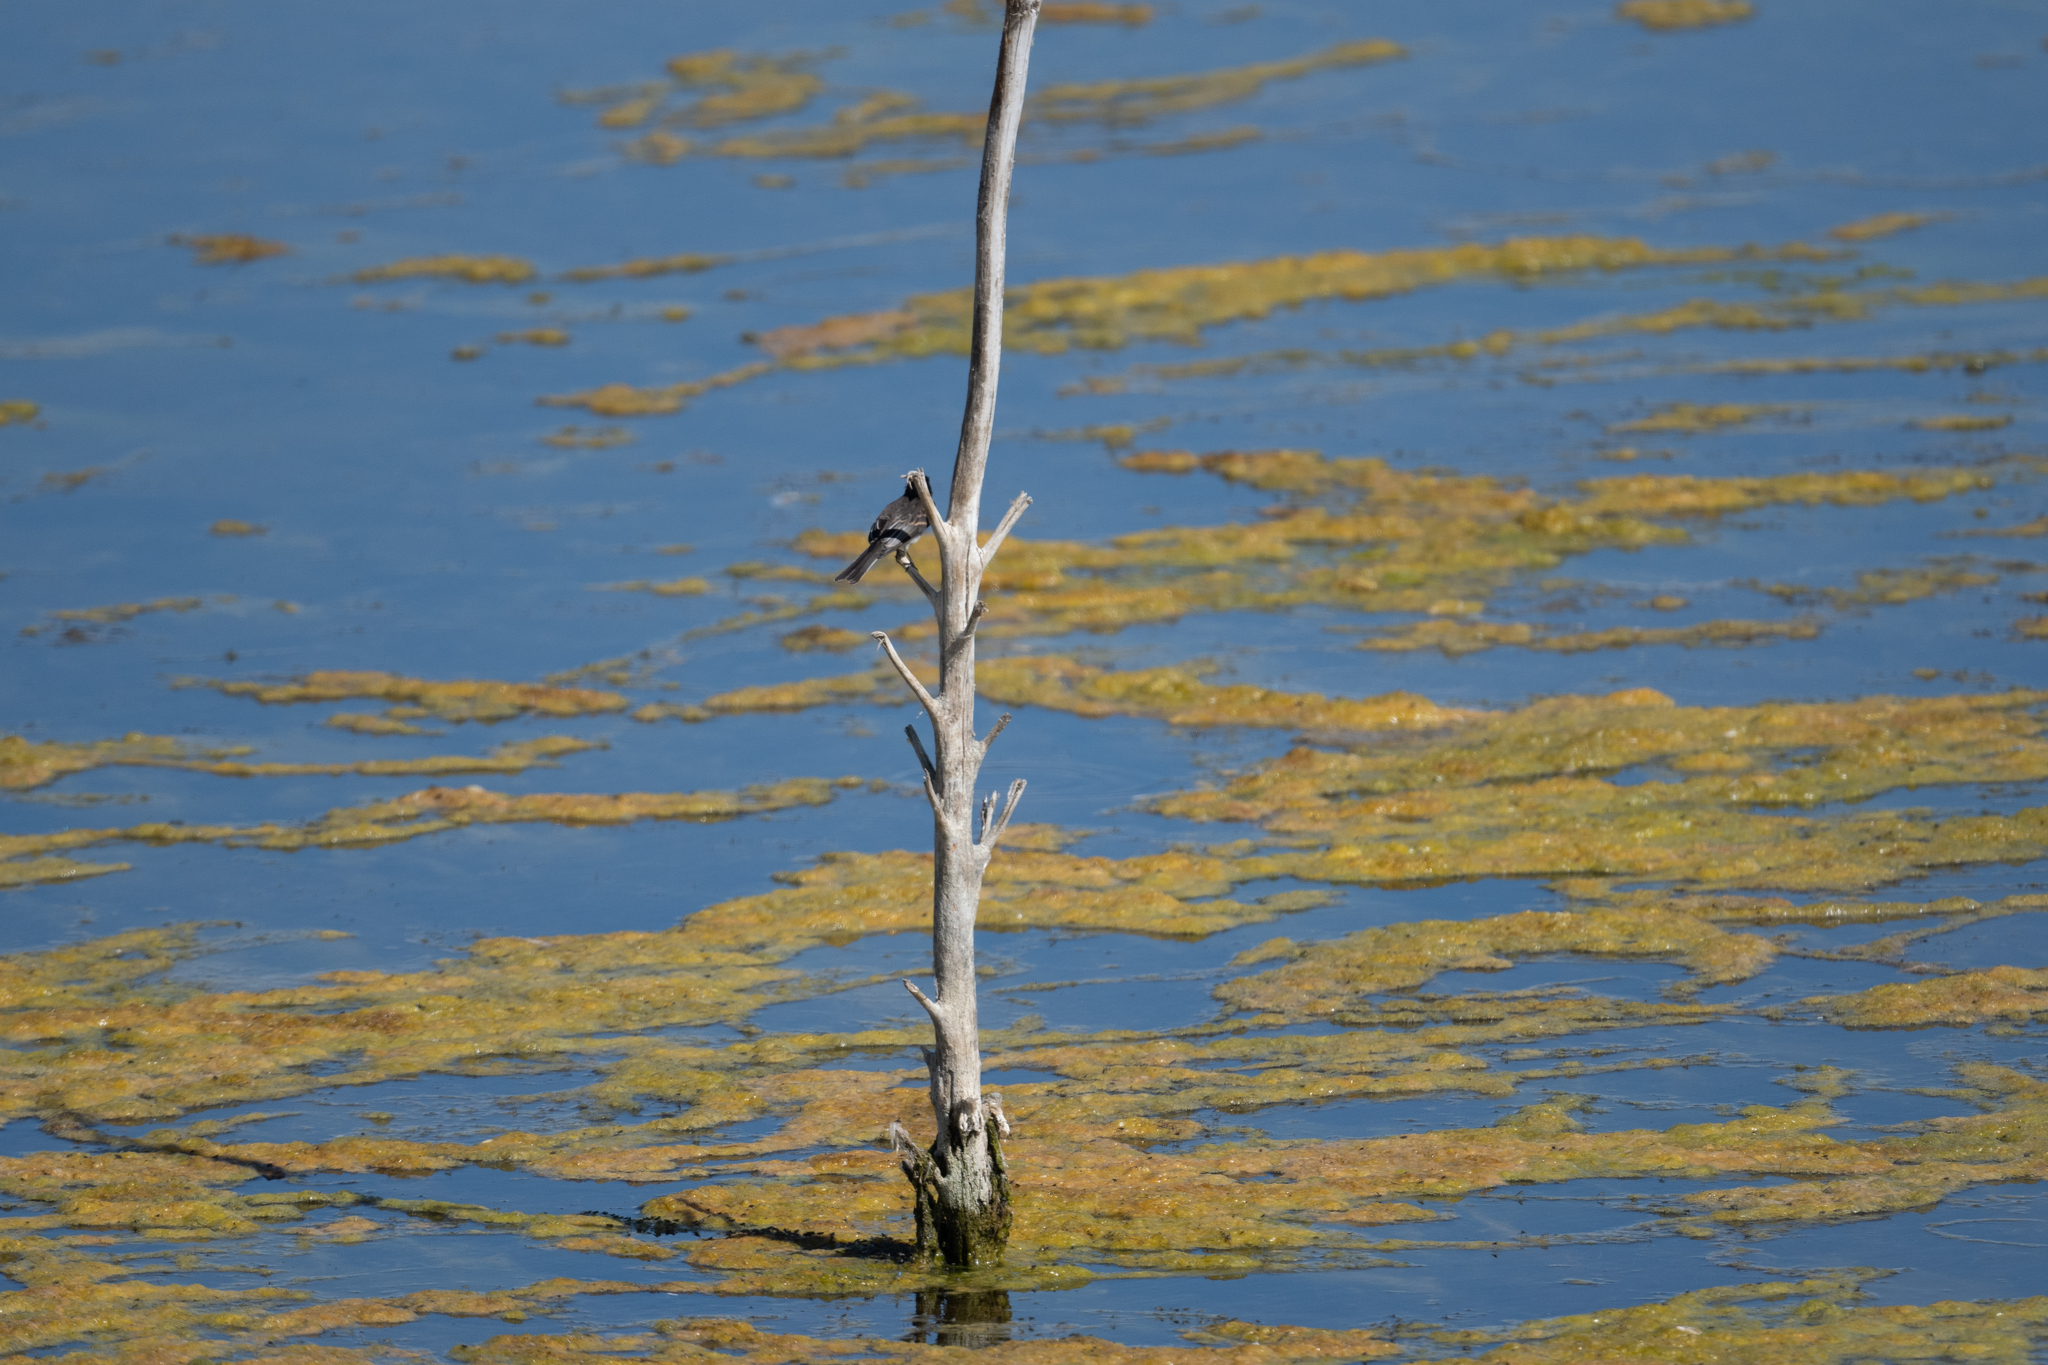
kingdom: Animalia
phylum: Chordata
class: Aves
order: Passeriformes
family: Tyrannidae
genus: Sayornis
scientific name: Sayornis nigricans
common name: Black phoebe
